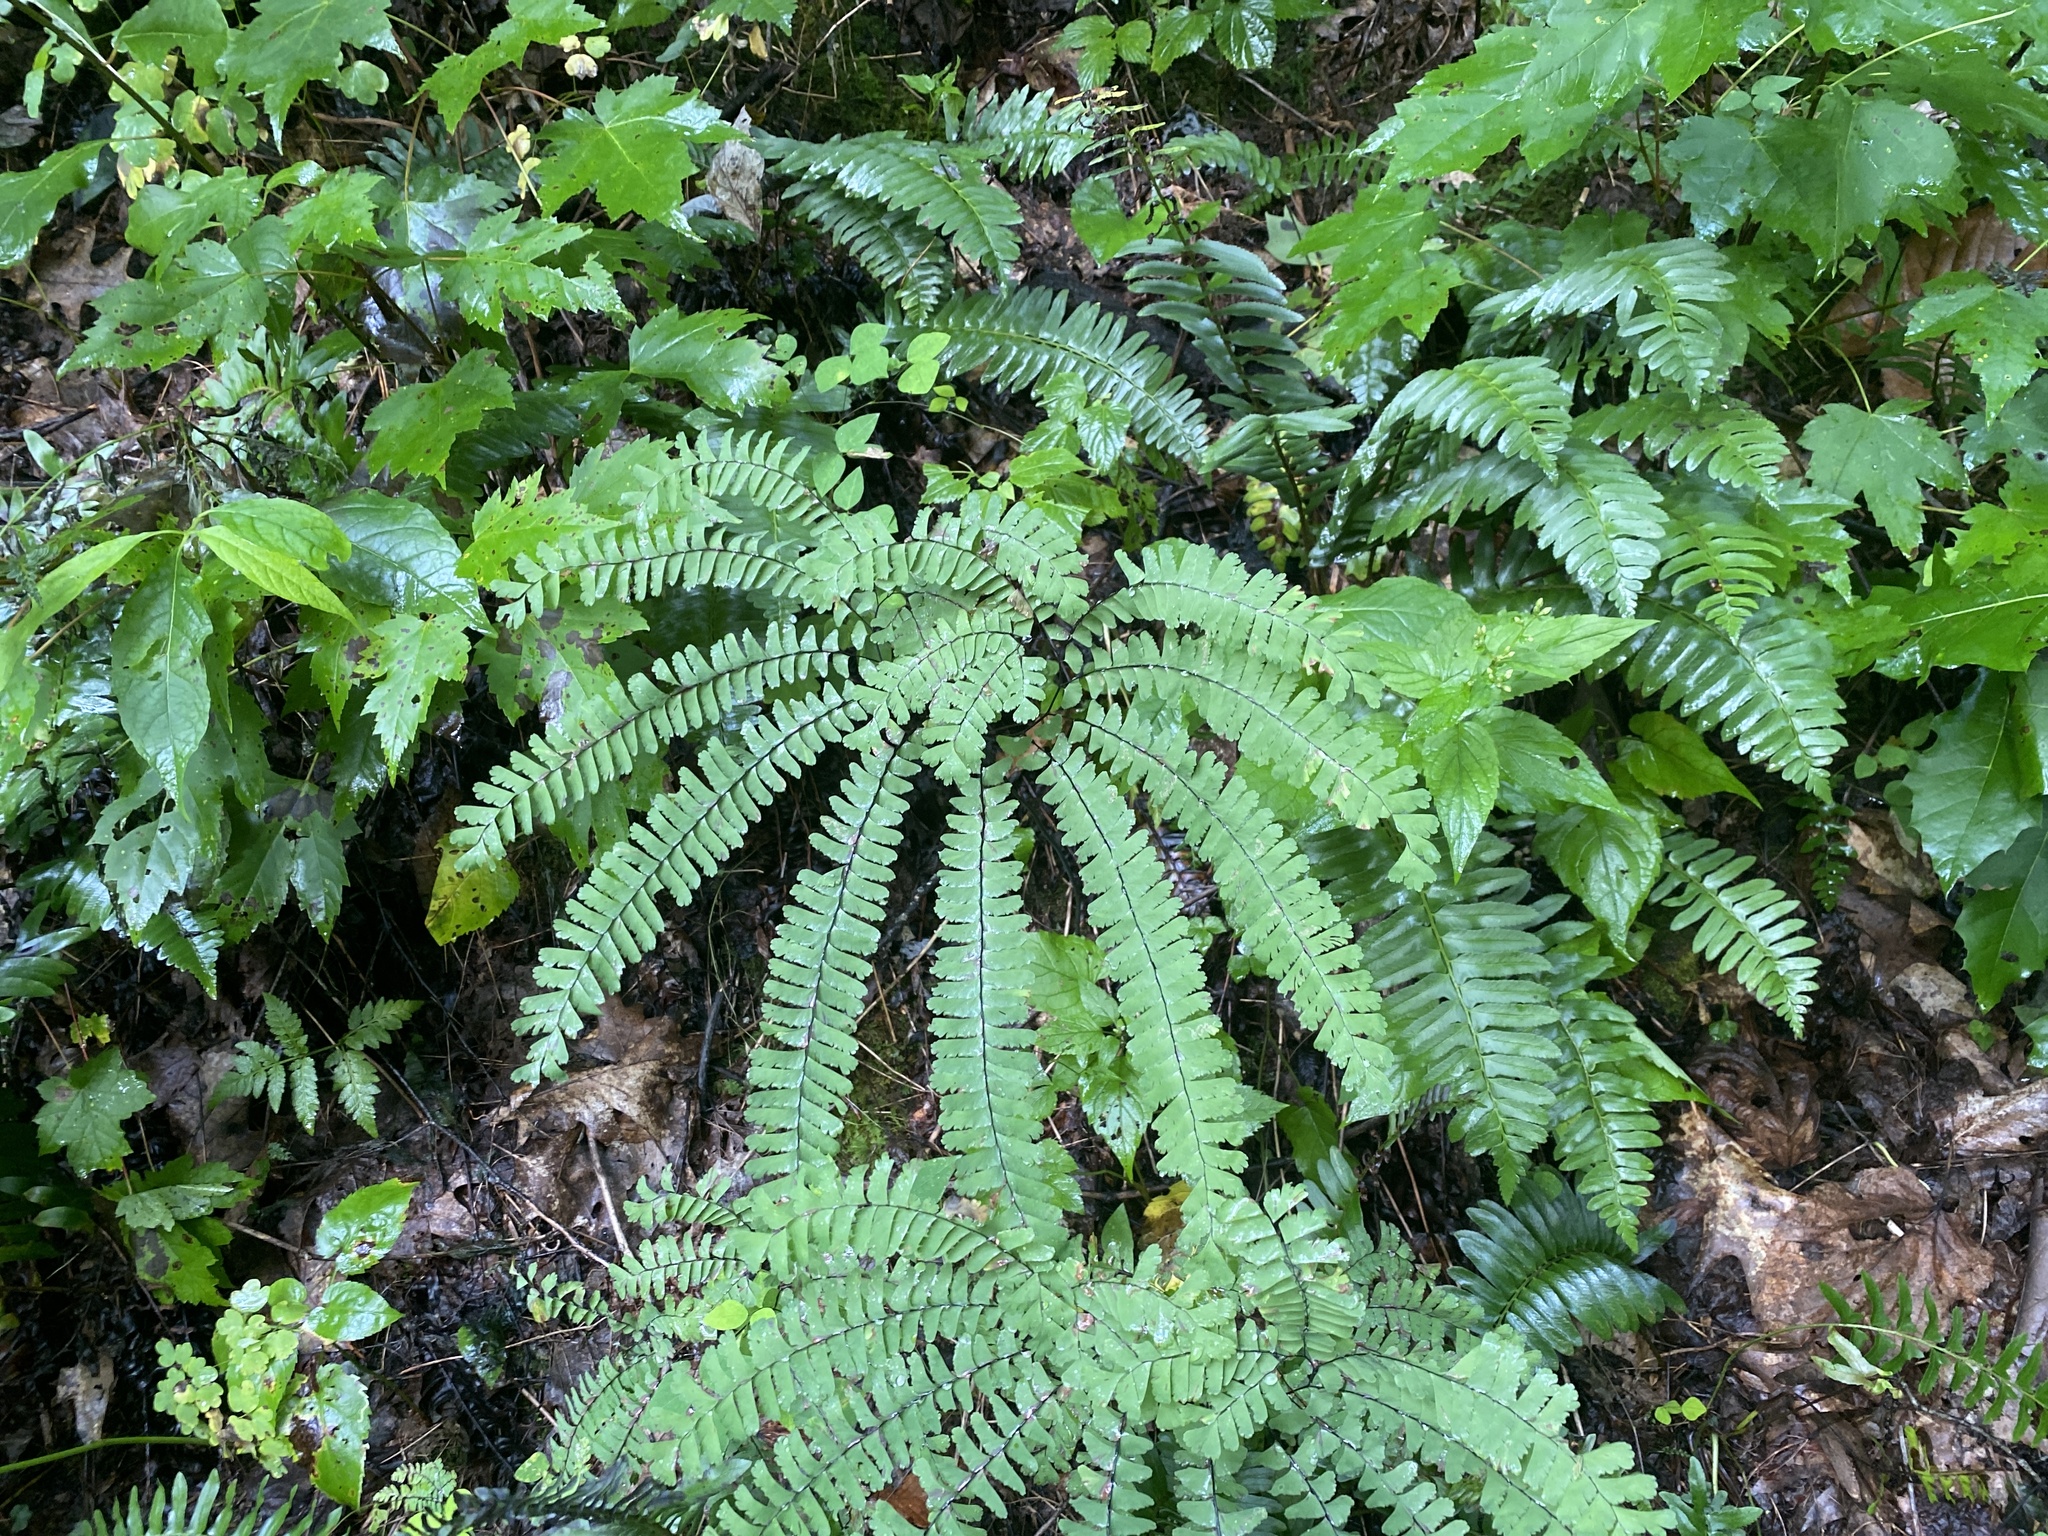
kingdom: Plantae
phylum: Tracheophyta
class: Polypodiopsida
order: Polypodiales
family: Pteridaceae
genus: Adiantum
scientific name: Adiantum pedatum
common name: Five-finger fern
